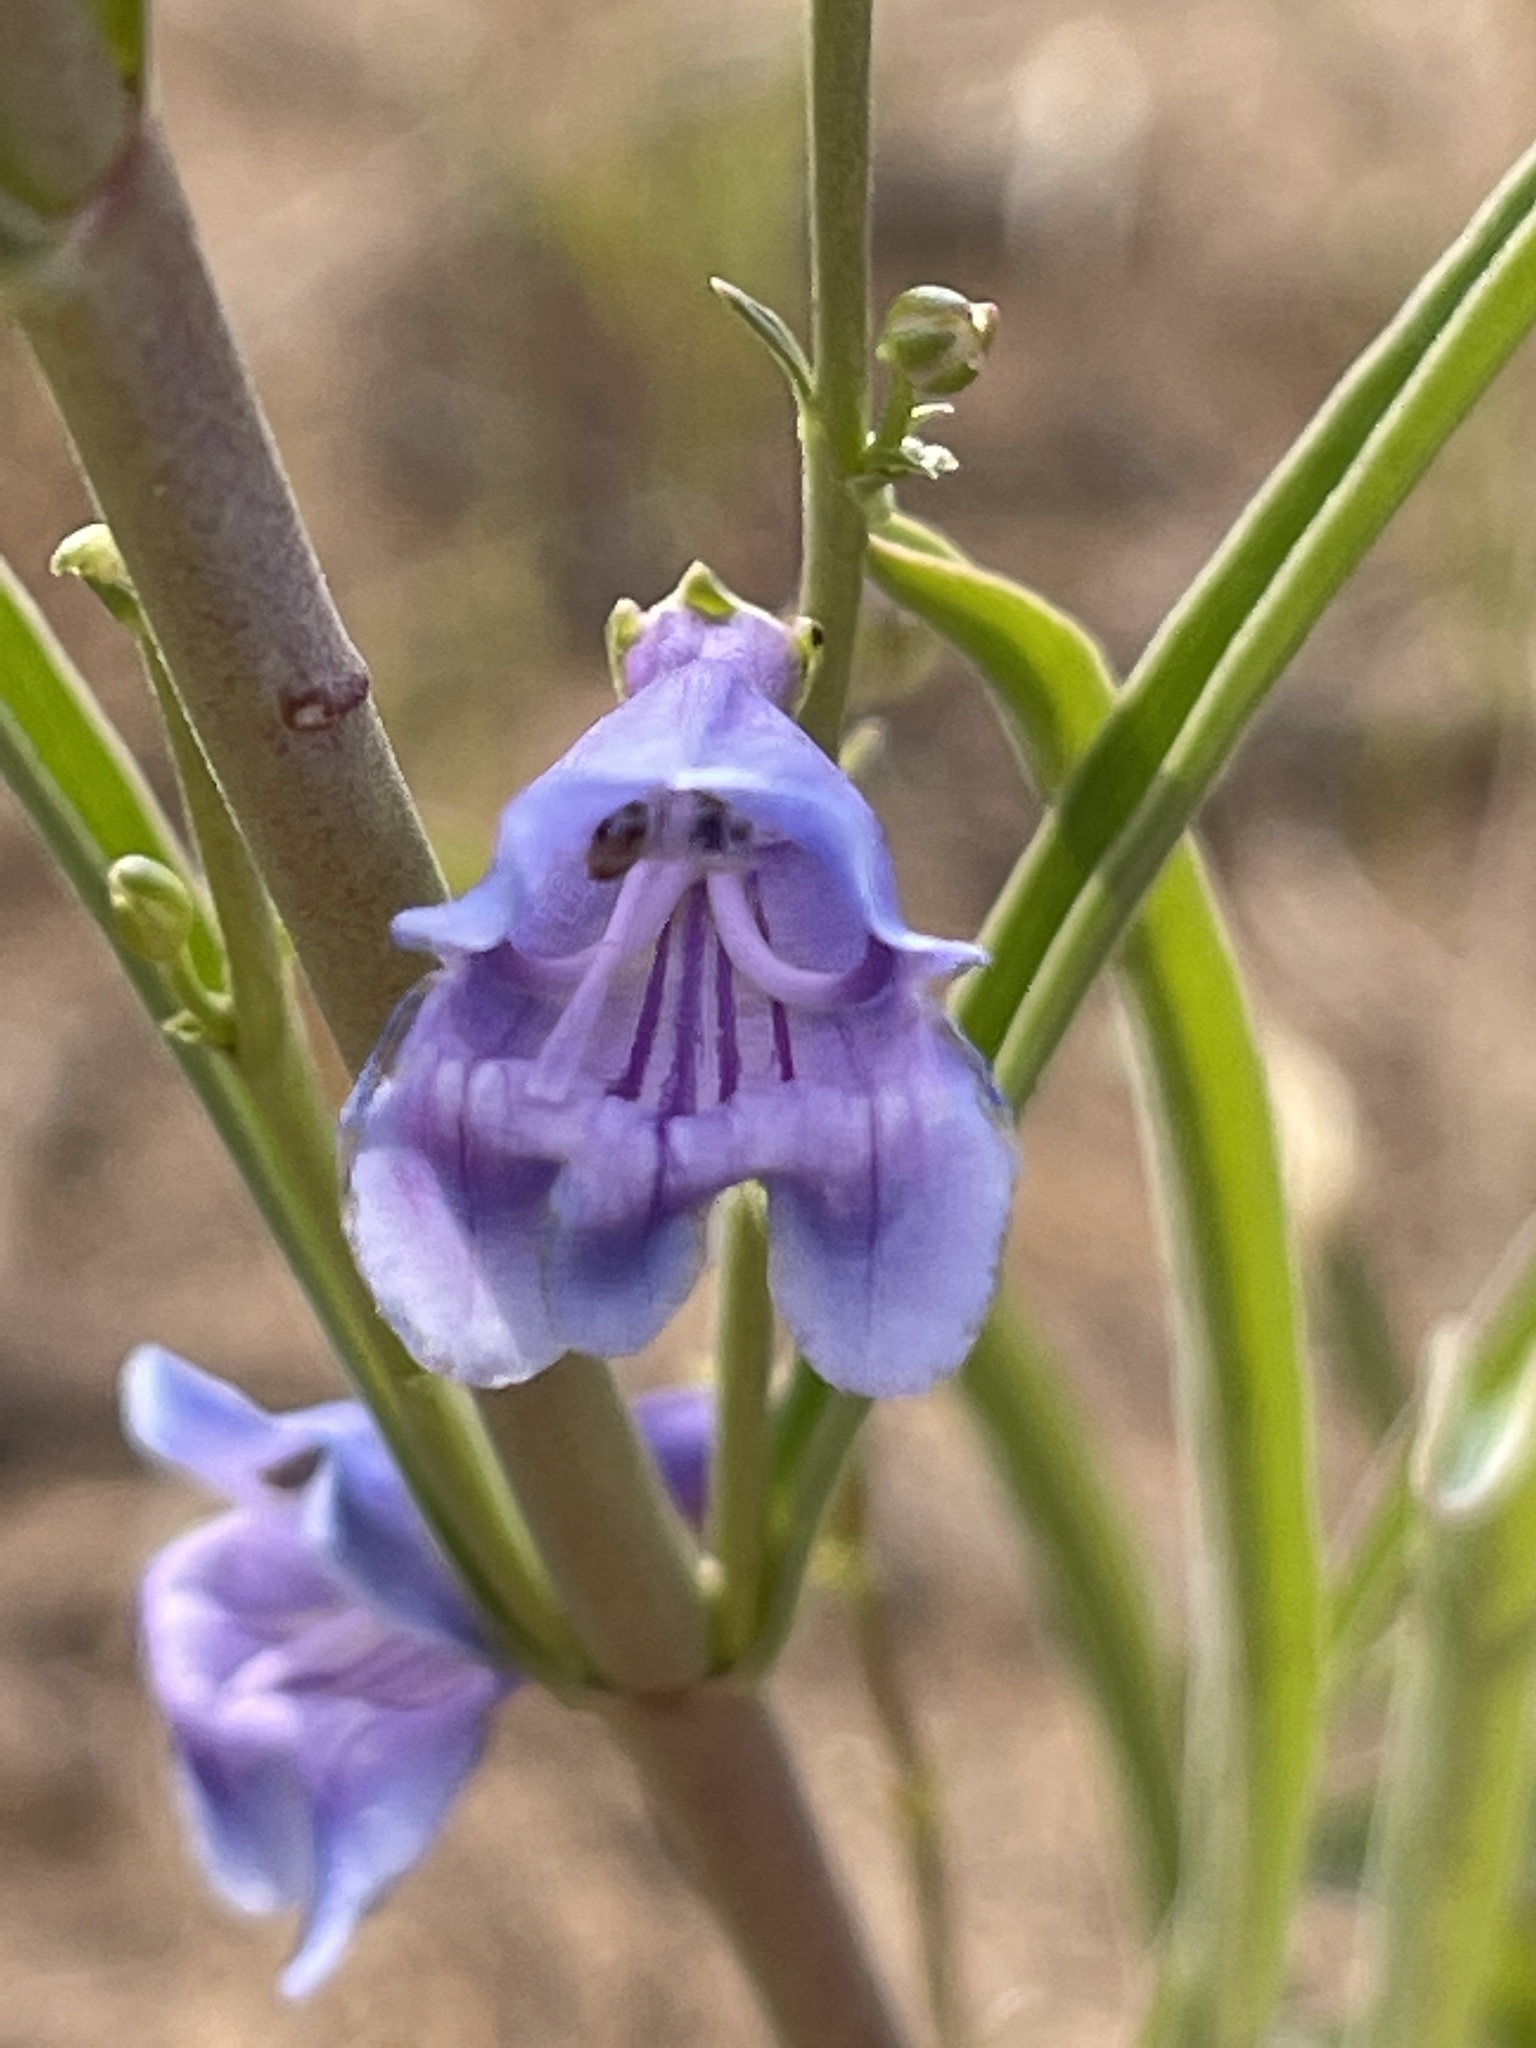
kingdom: Plantae
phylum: Tracheophyta
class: Magnoliopsida
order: Lamiales
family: Plantaginaceae
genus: Penstemon
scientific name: Penstemon comarrhenus
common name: Dusty penstemon
